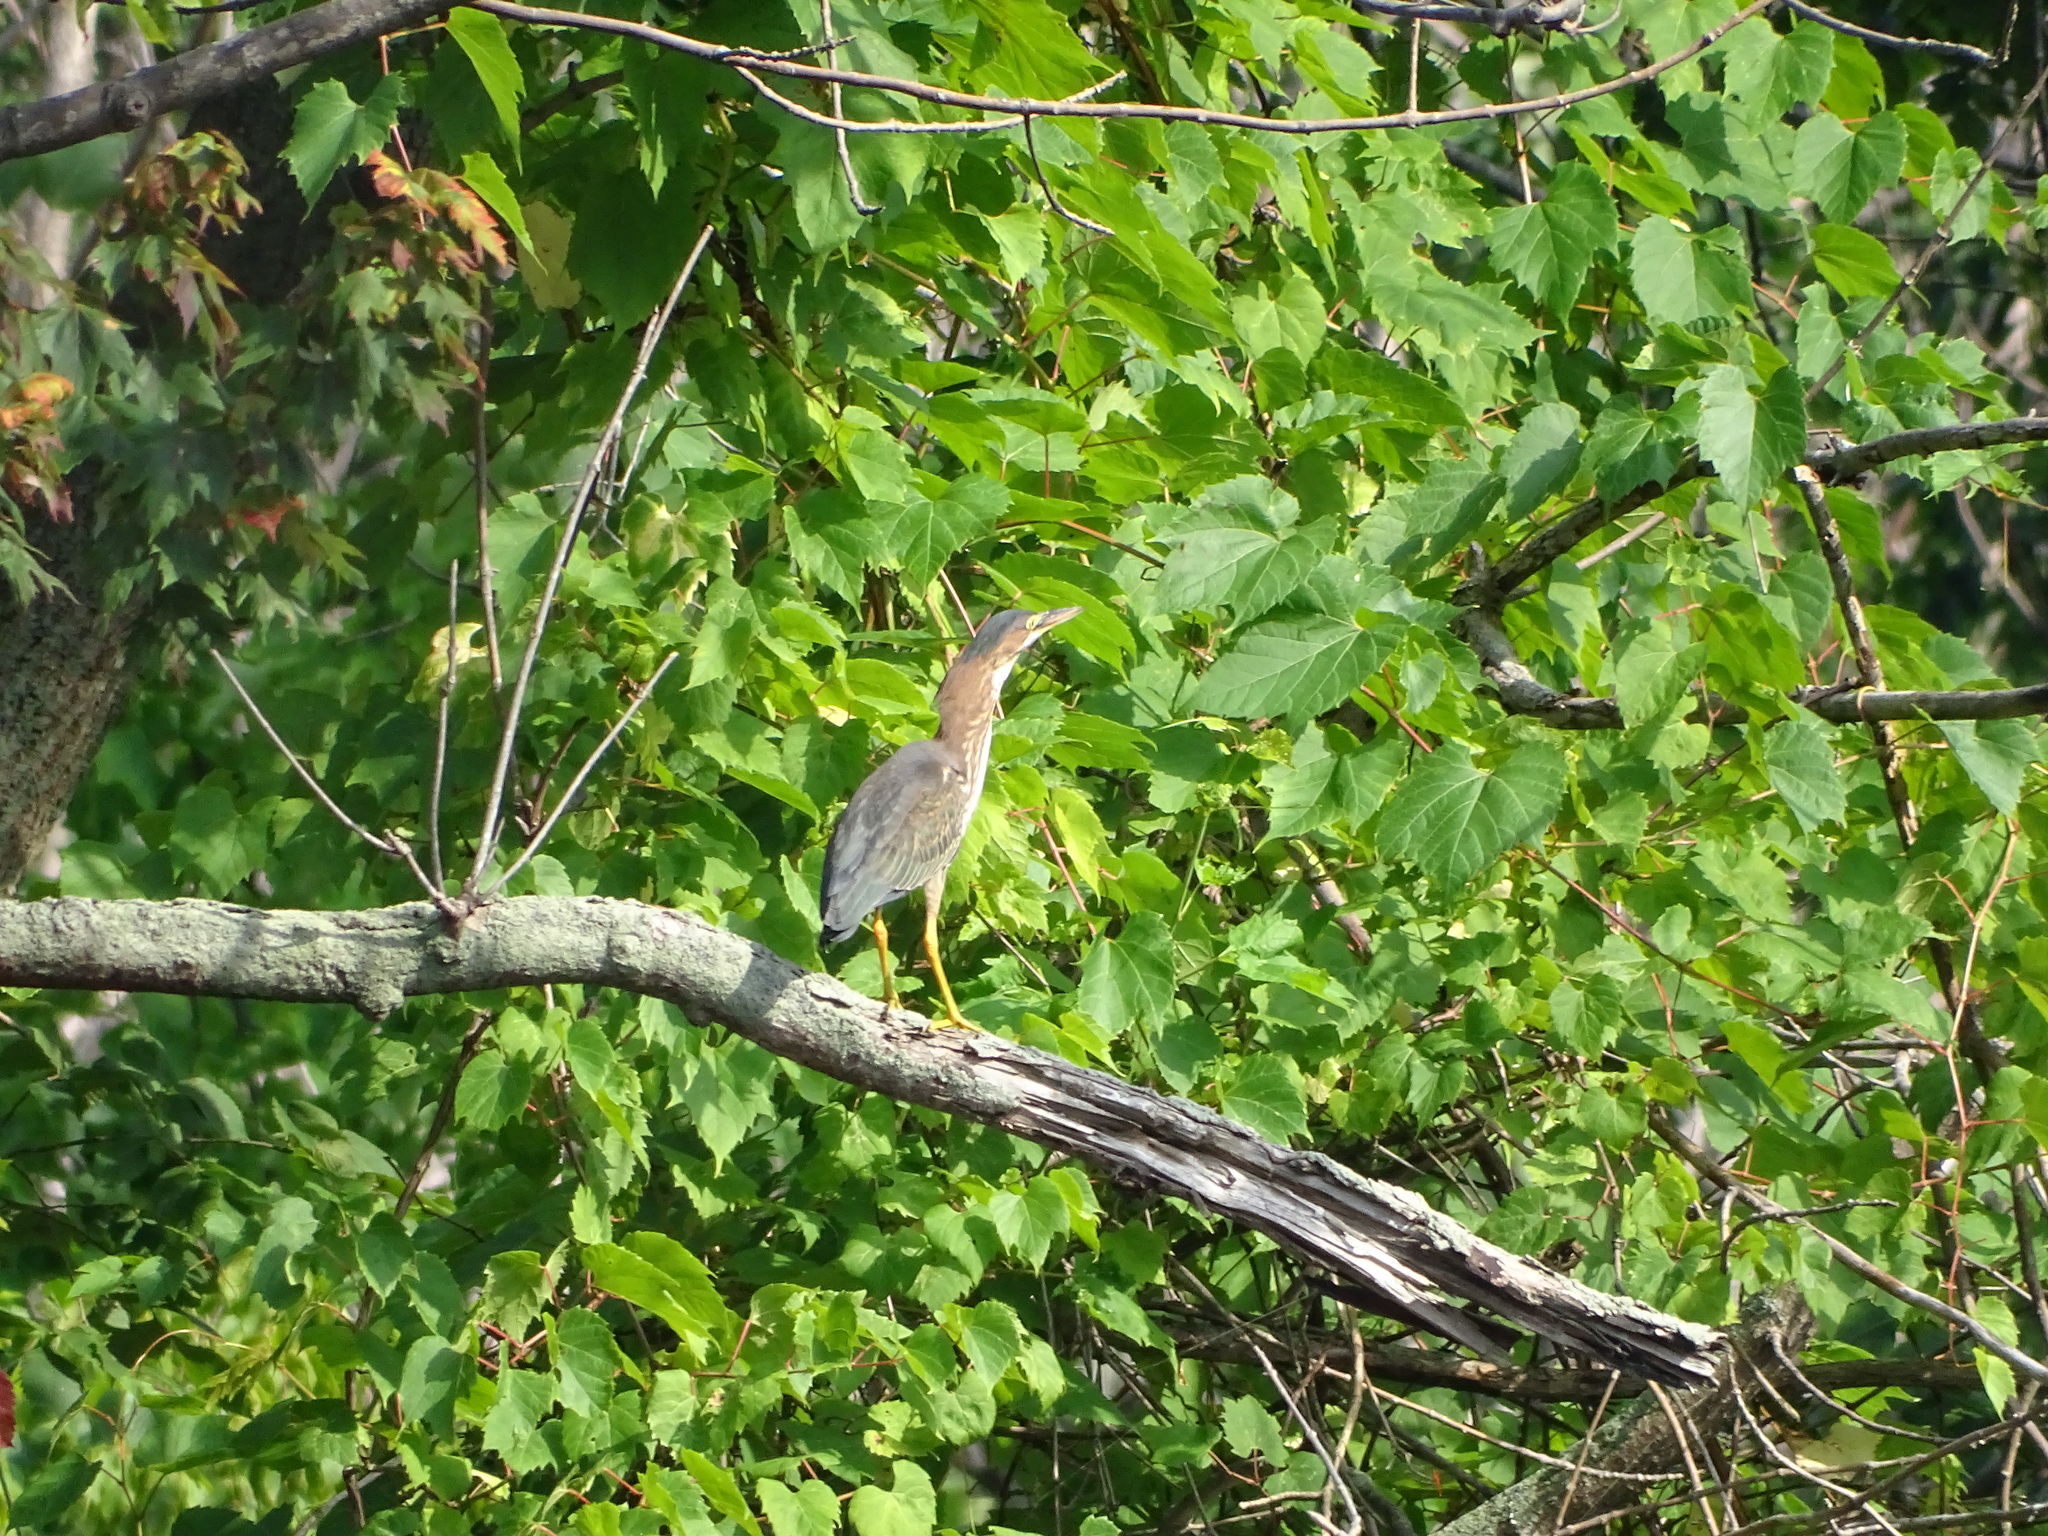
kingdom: Animalia
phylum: Chordata
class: Aves
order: Pelecaniformes
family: Ardeidae
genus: Butorides
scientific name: Butorides virescens
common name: Green heron
